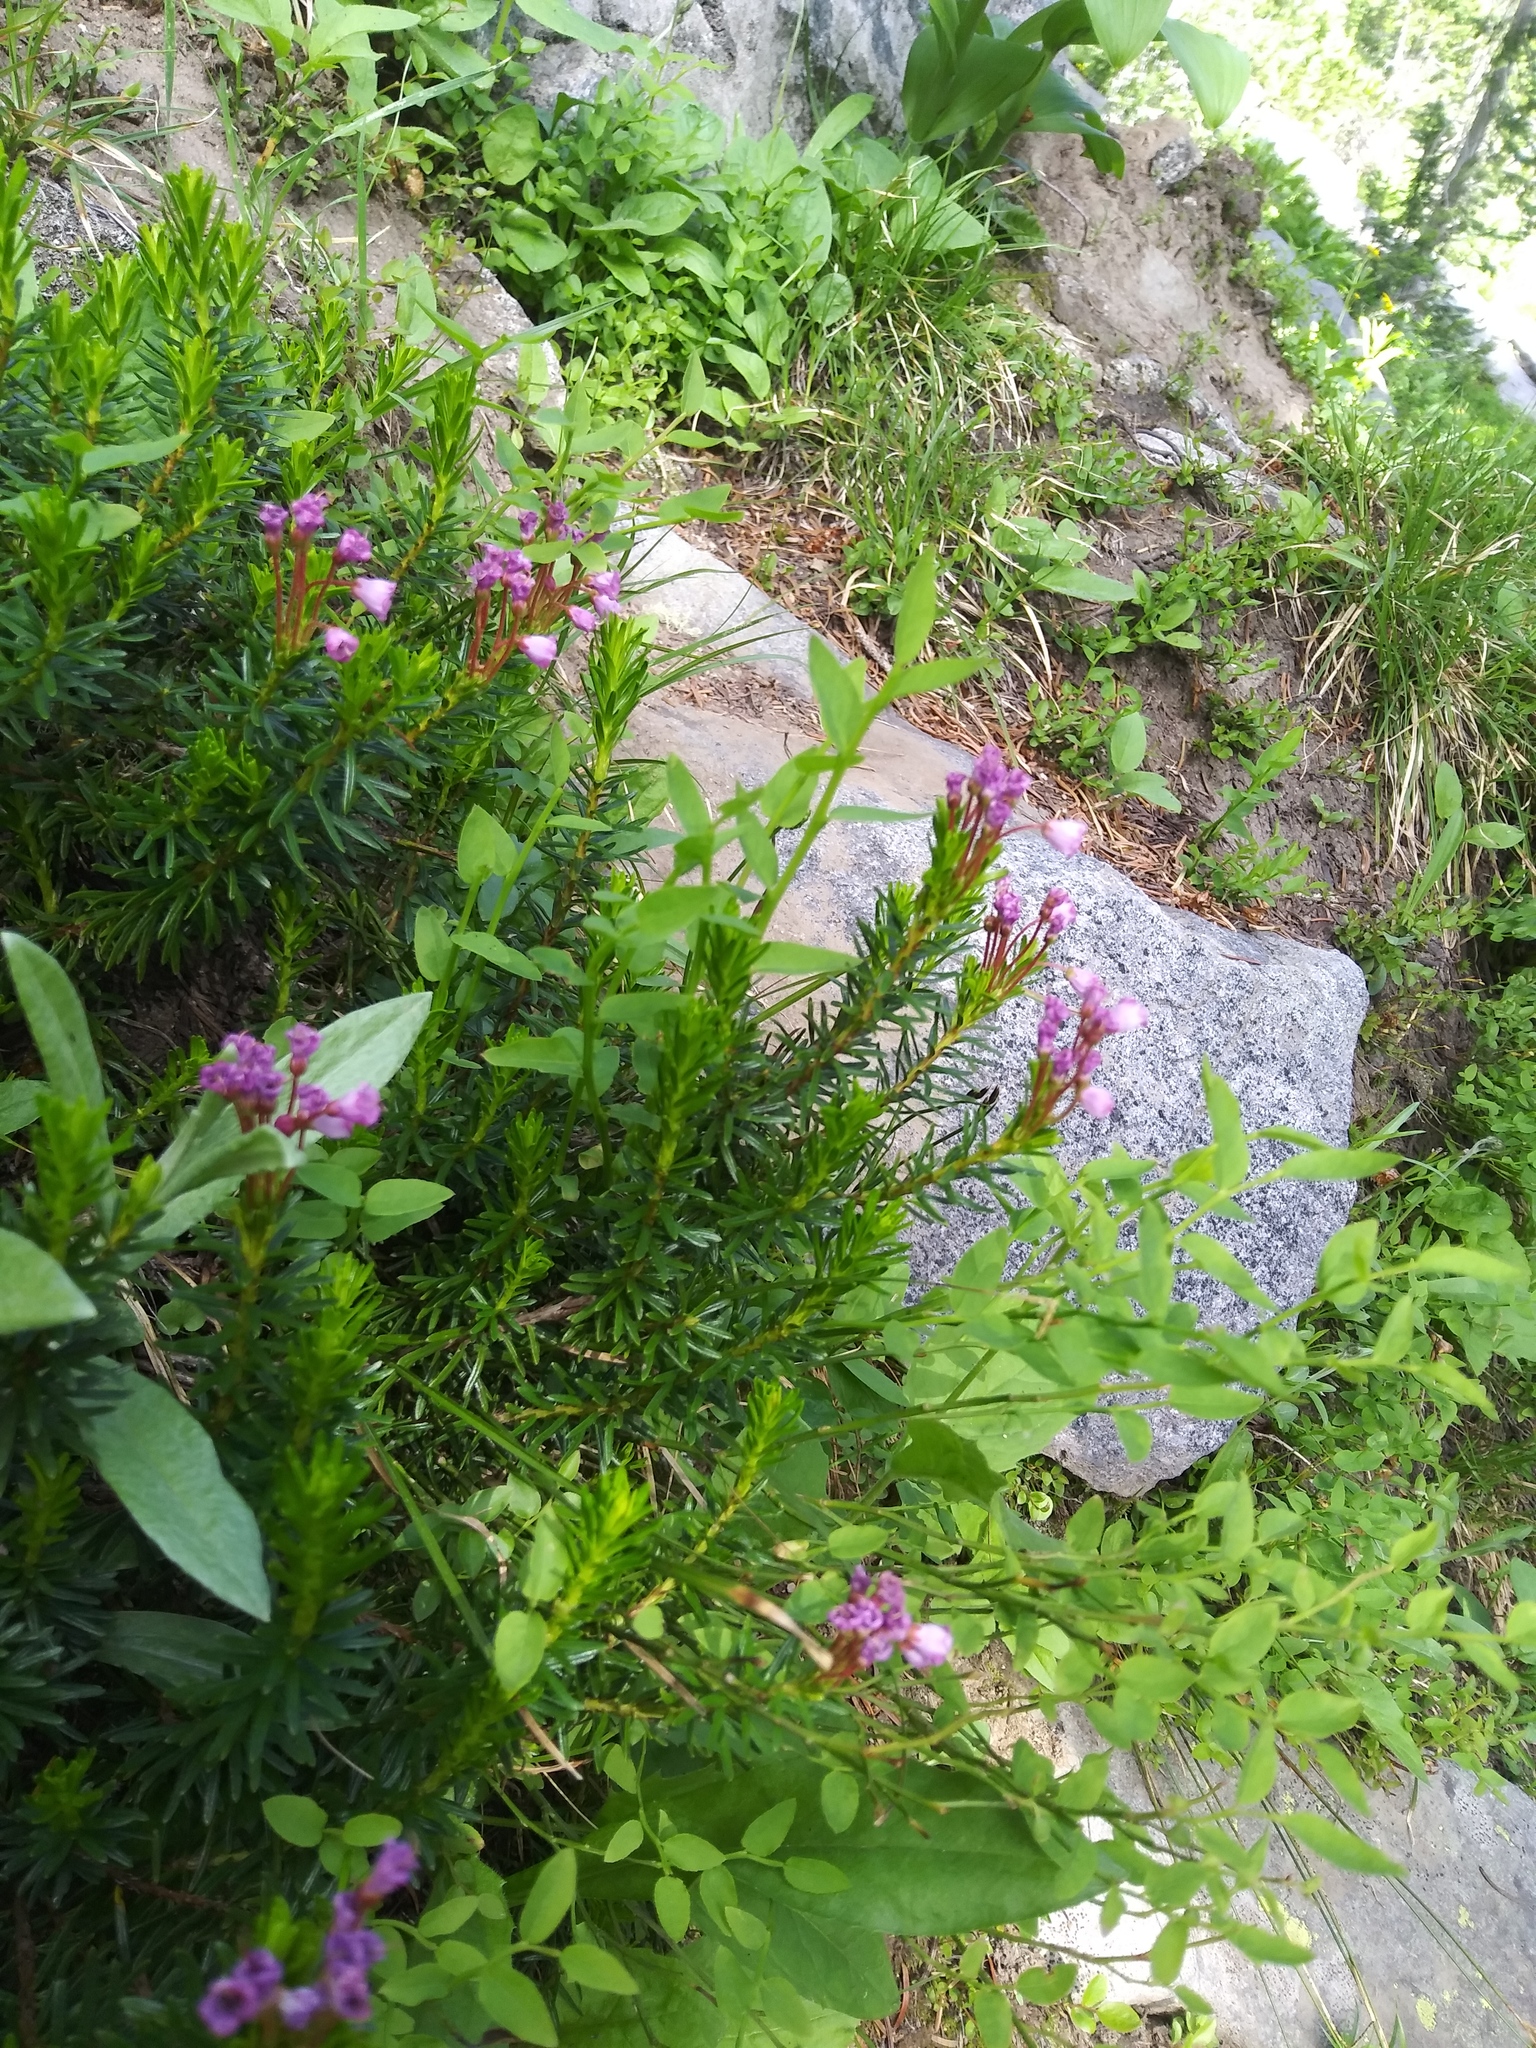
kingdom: Plantae
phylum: Tracheophyta
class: Magnoliopsida
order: Ericales
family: Ericaceae
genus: Phyllodoce
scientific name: Phyllodoce empetriformis
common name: Pink mountain heather
